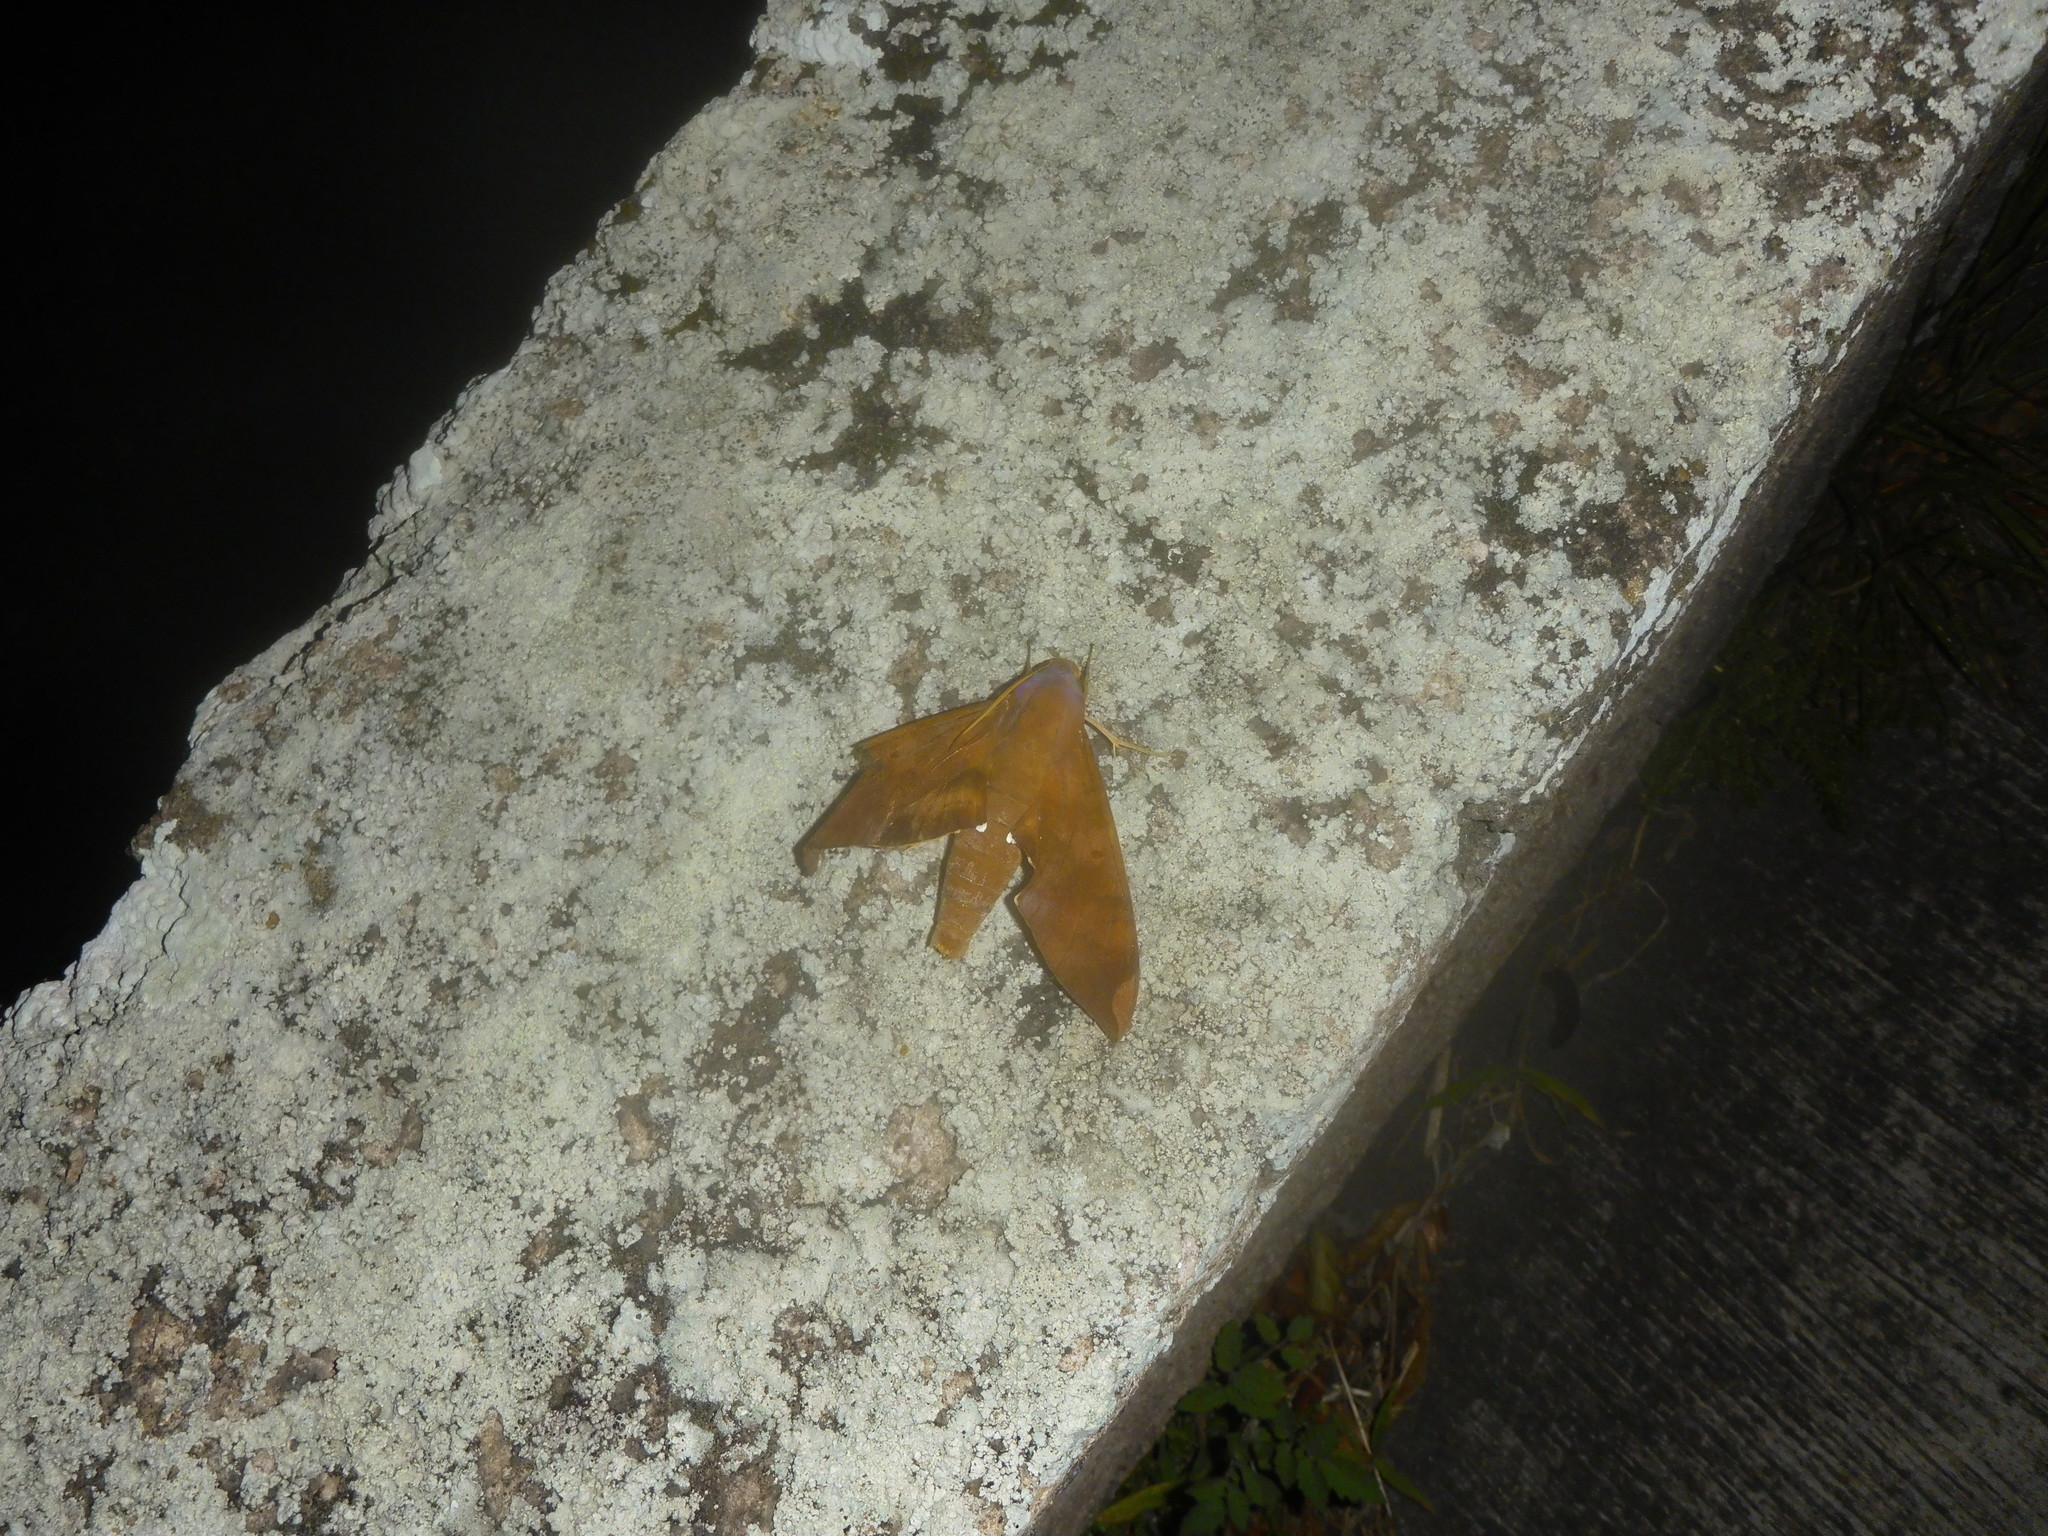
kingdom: Animalia
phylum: Arthropoda
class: Insecta
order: Lepidoptera
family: Sphingidae
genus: Pachylia
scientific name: Pachylia ficus
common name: Fig sphinx
